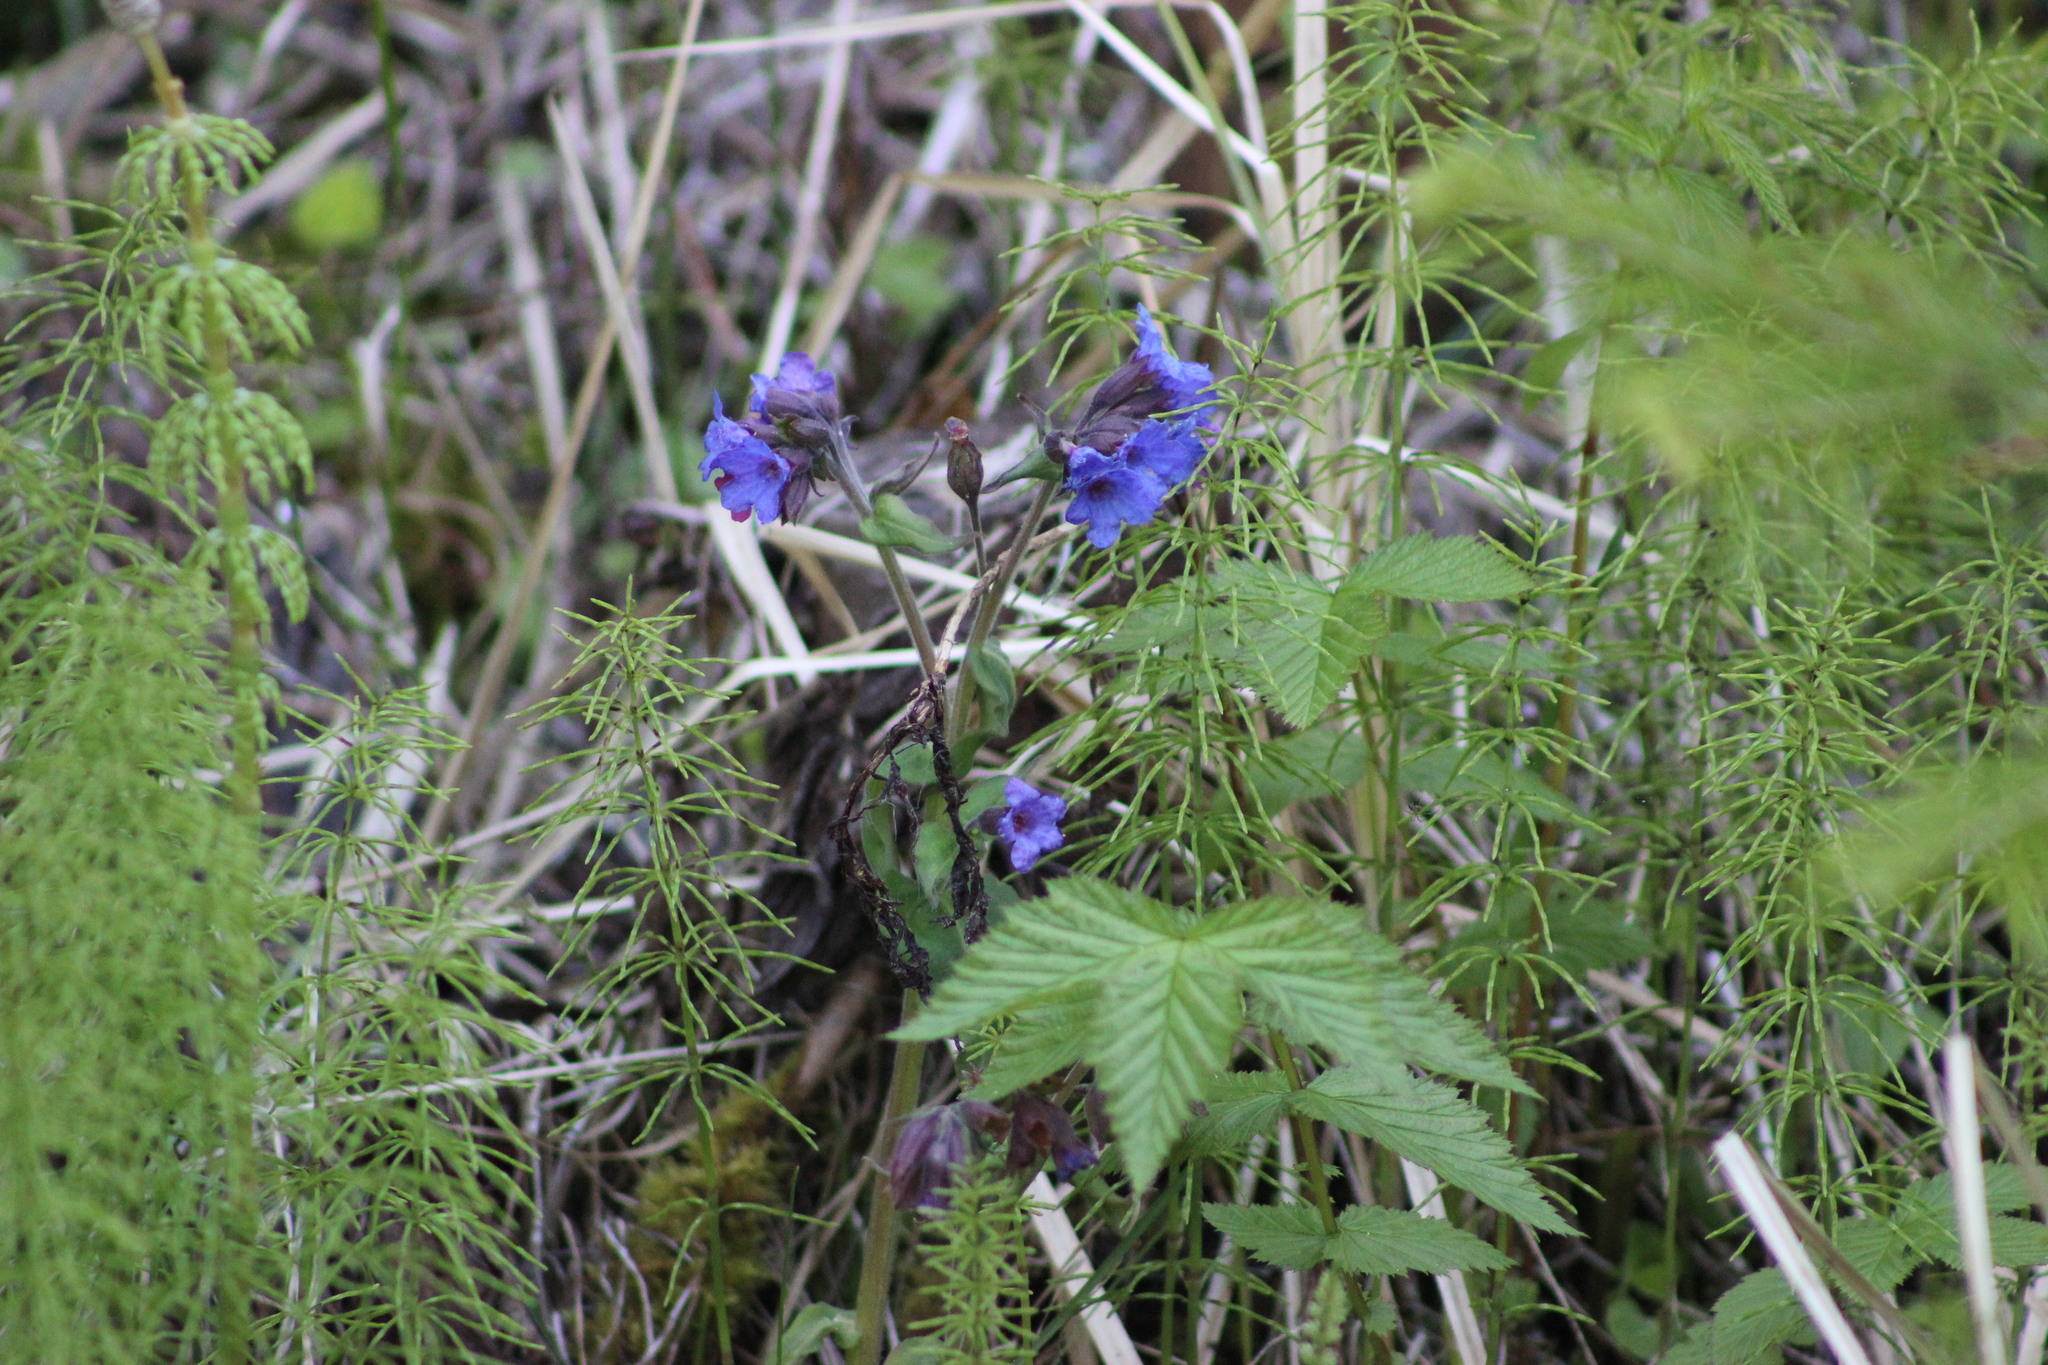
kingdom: Plantae
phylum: Tracheophyta
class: Magnoliopsida
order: Boraginales
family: Boraginaceae
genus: Pulmonaria
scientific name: Pulmonaria mollis
